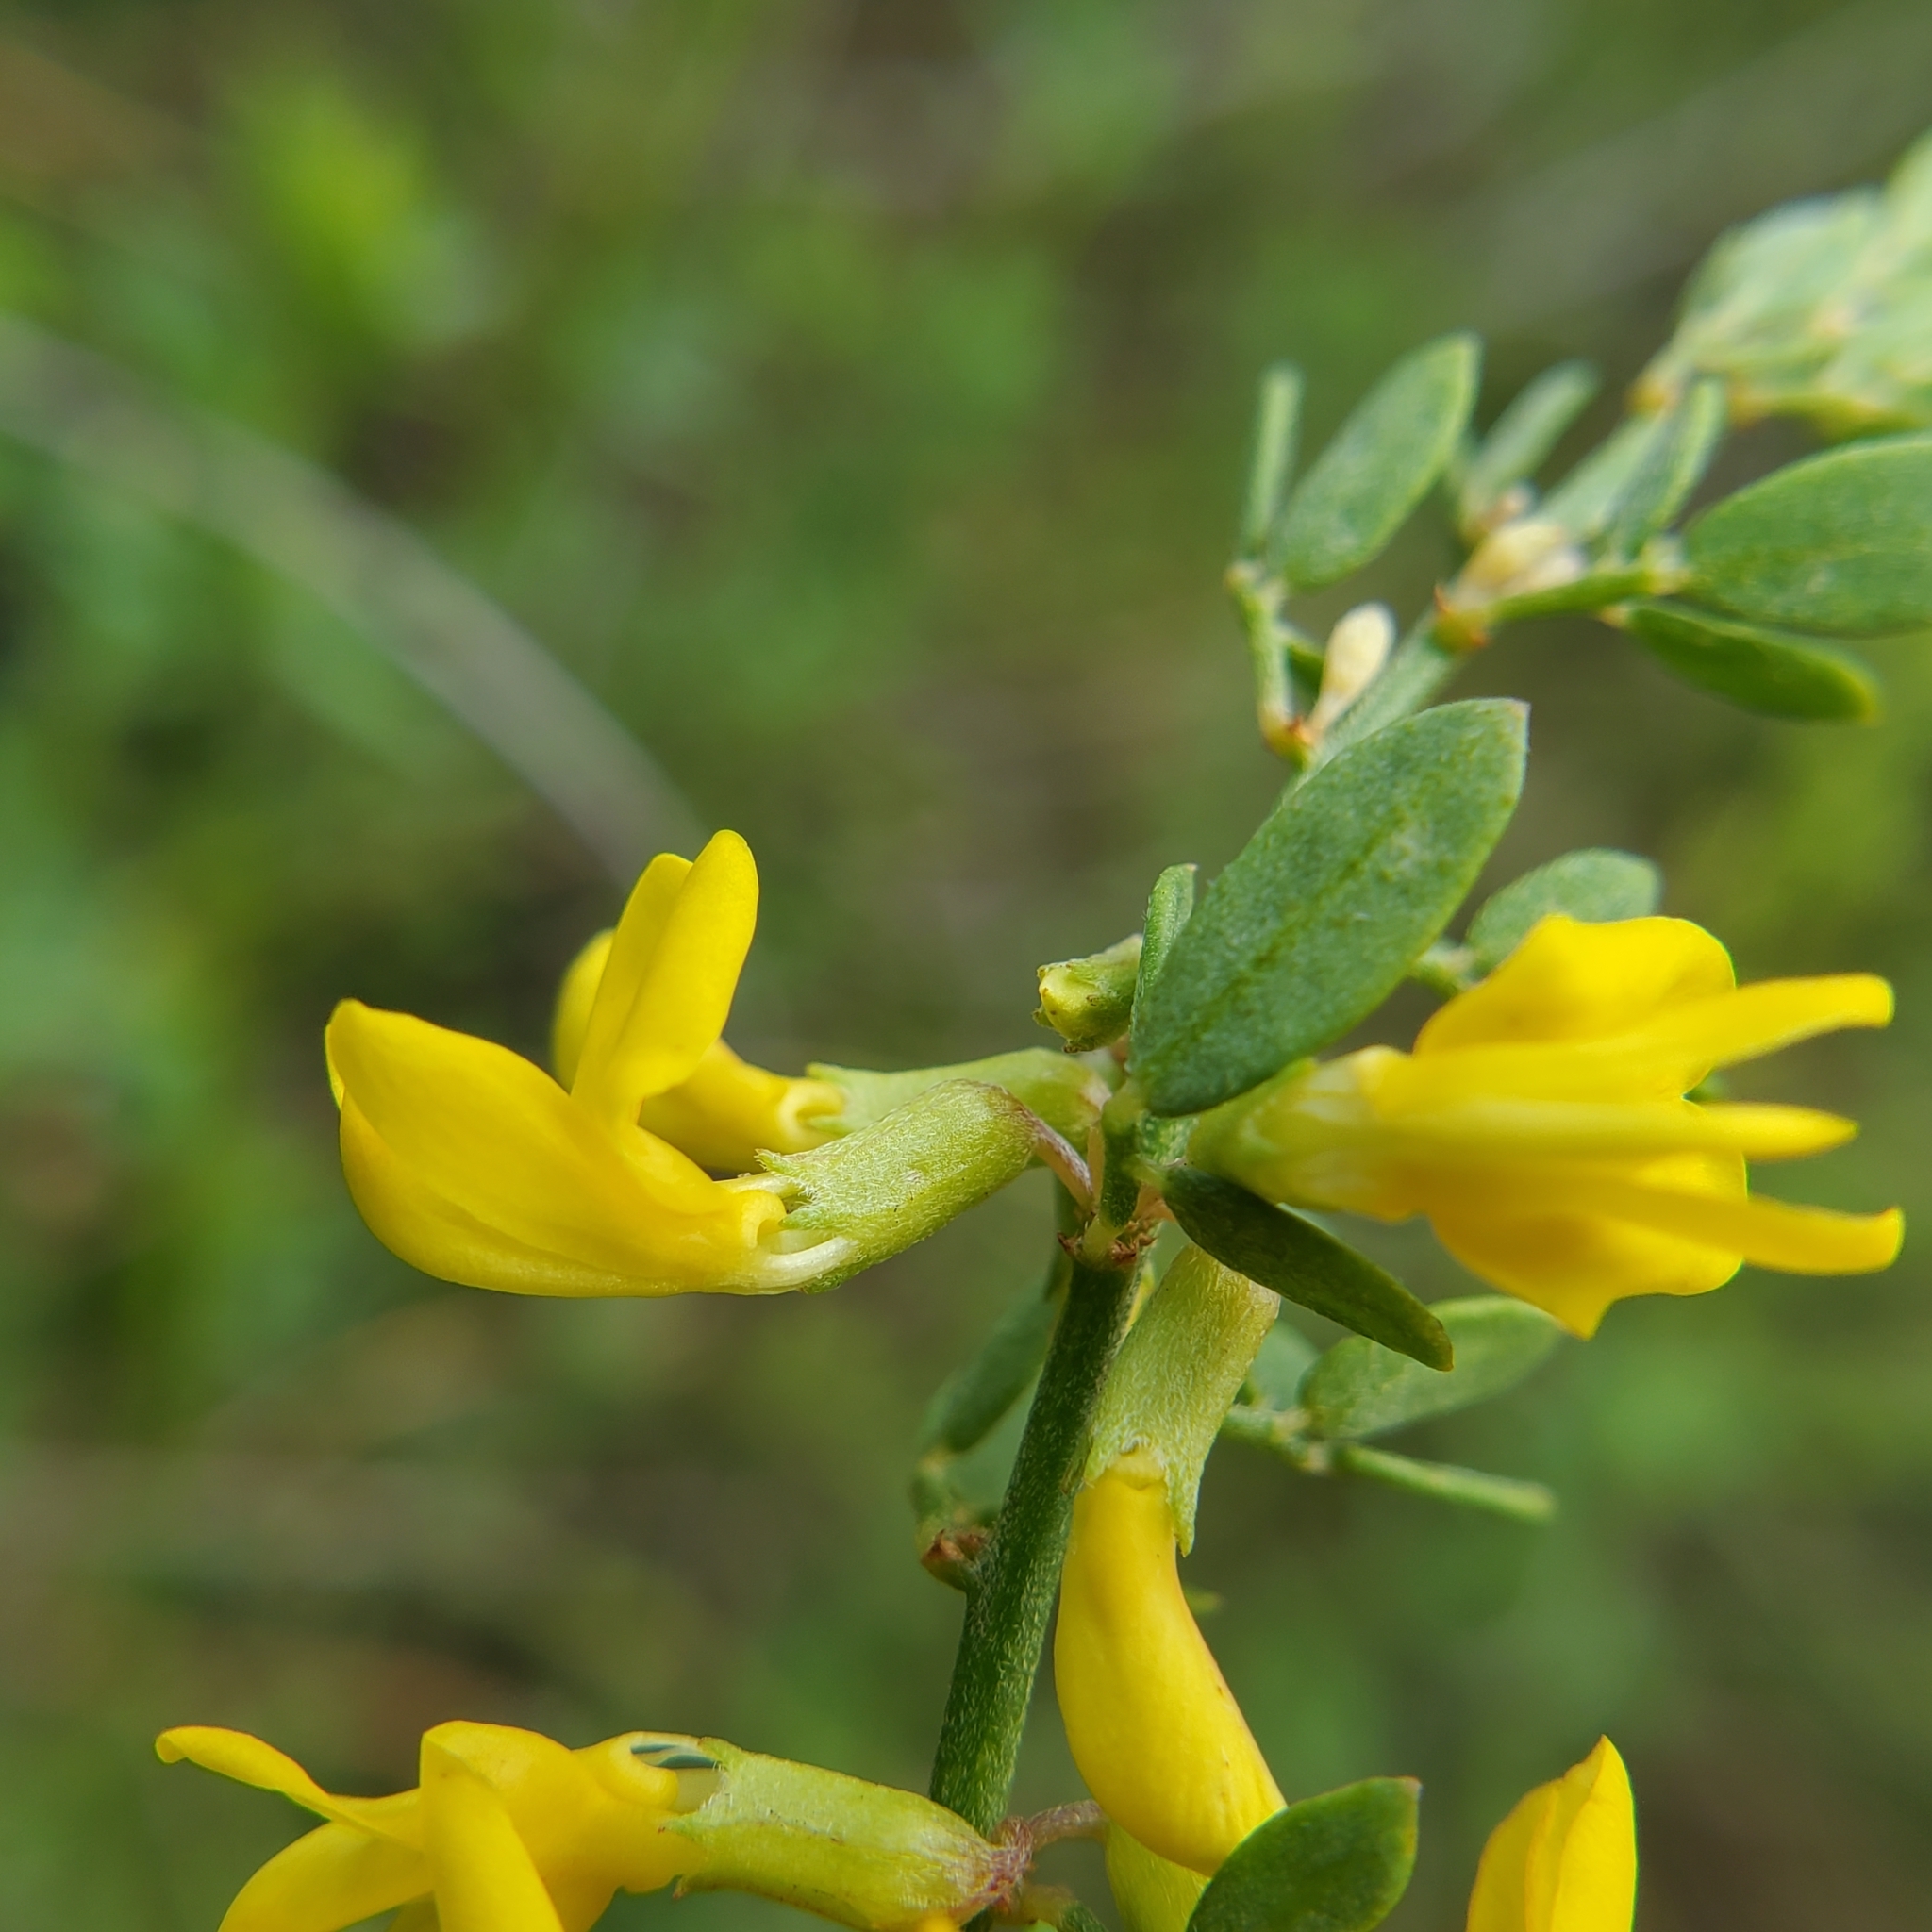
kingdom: Plantae
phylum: Tracheophyta
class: Magnoliopsida
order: Fabales
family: Fabaceae
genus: Acmispon
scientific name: Acmispon glaber
